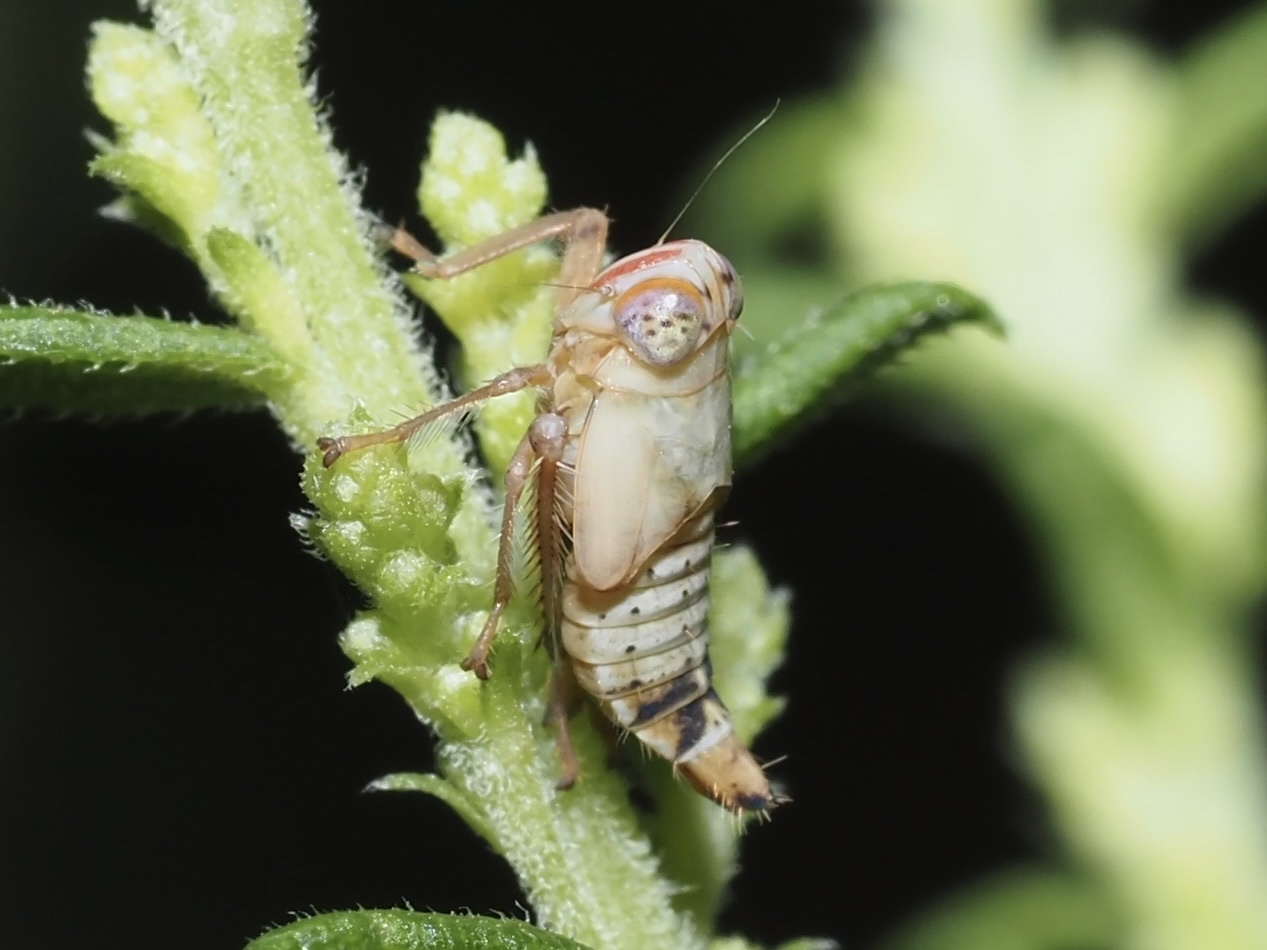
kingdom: Animalia
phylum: Arthropoda
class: Insecta
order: Hemiptera
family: Cicadellidae
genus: Jikradia
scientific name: Jikradia olitoria
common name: Coppery leafhopper
